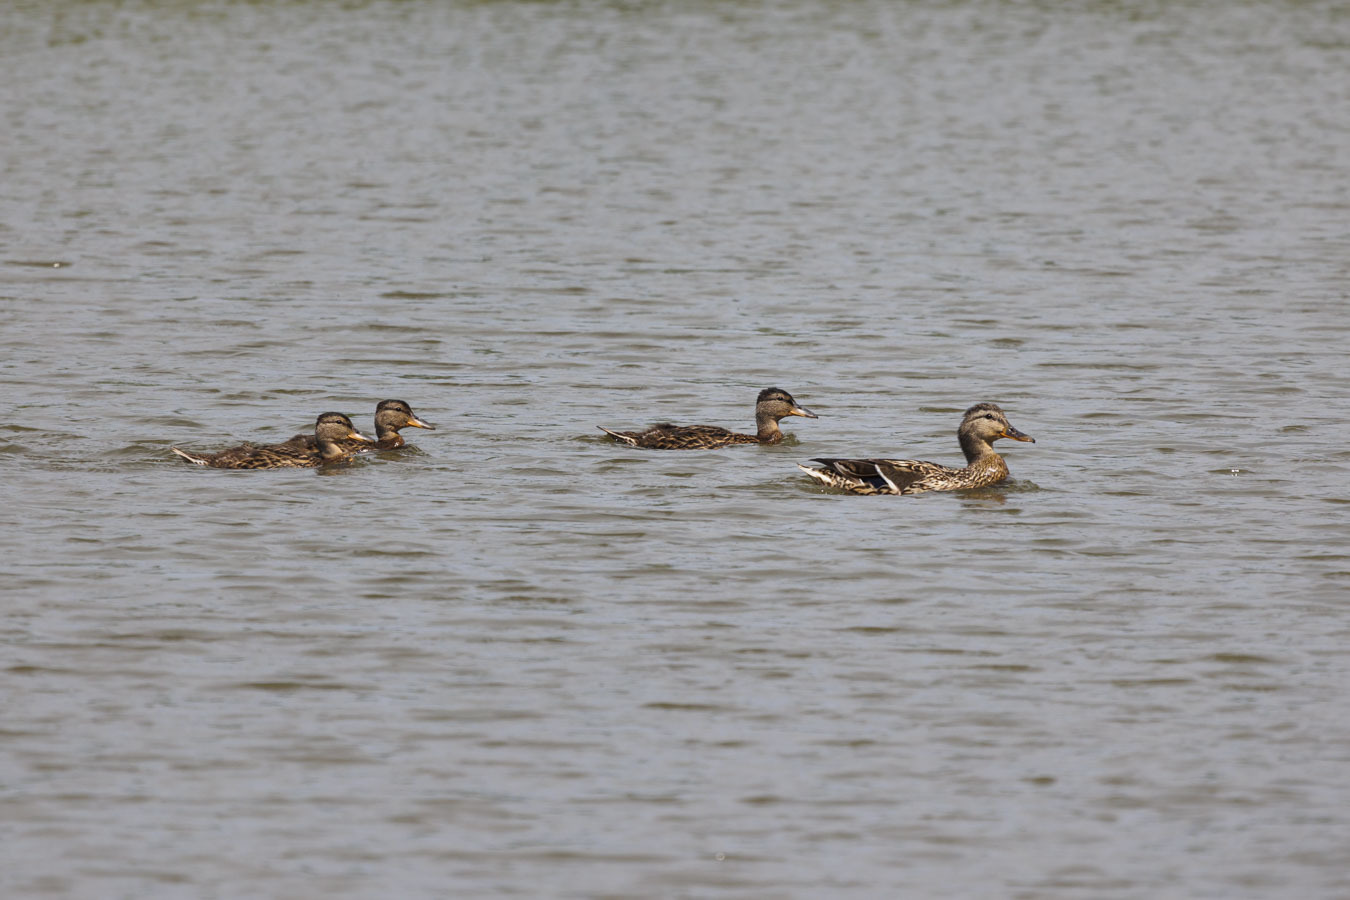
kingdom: Animalia
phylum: Chordata
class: Aves
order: Anseriformes
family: Anatidae
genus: Anas
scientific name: Anas platyrhynchos
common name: Mallard
